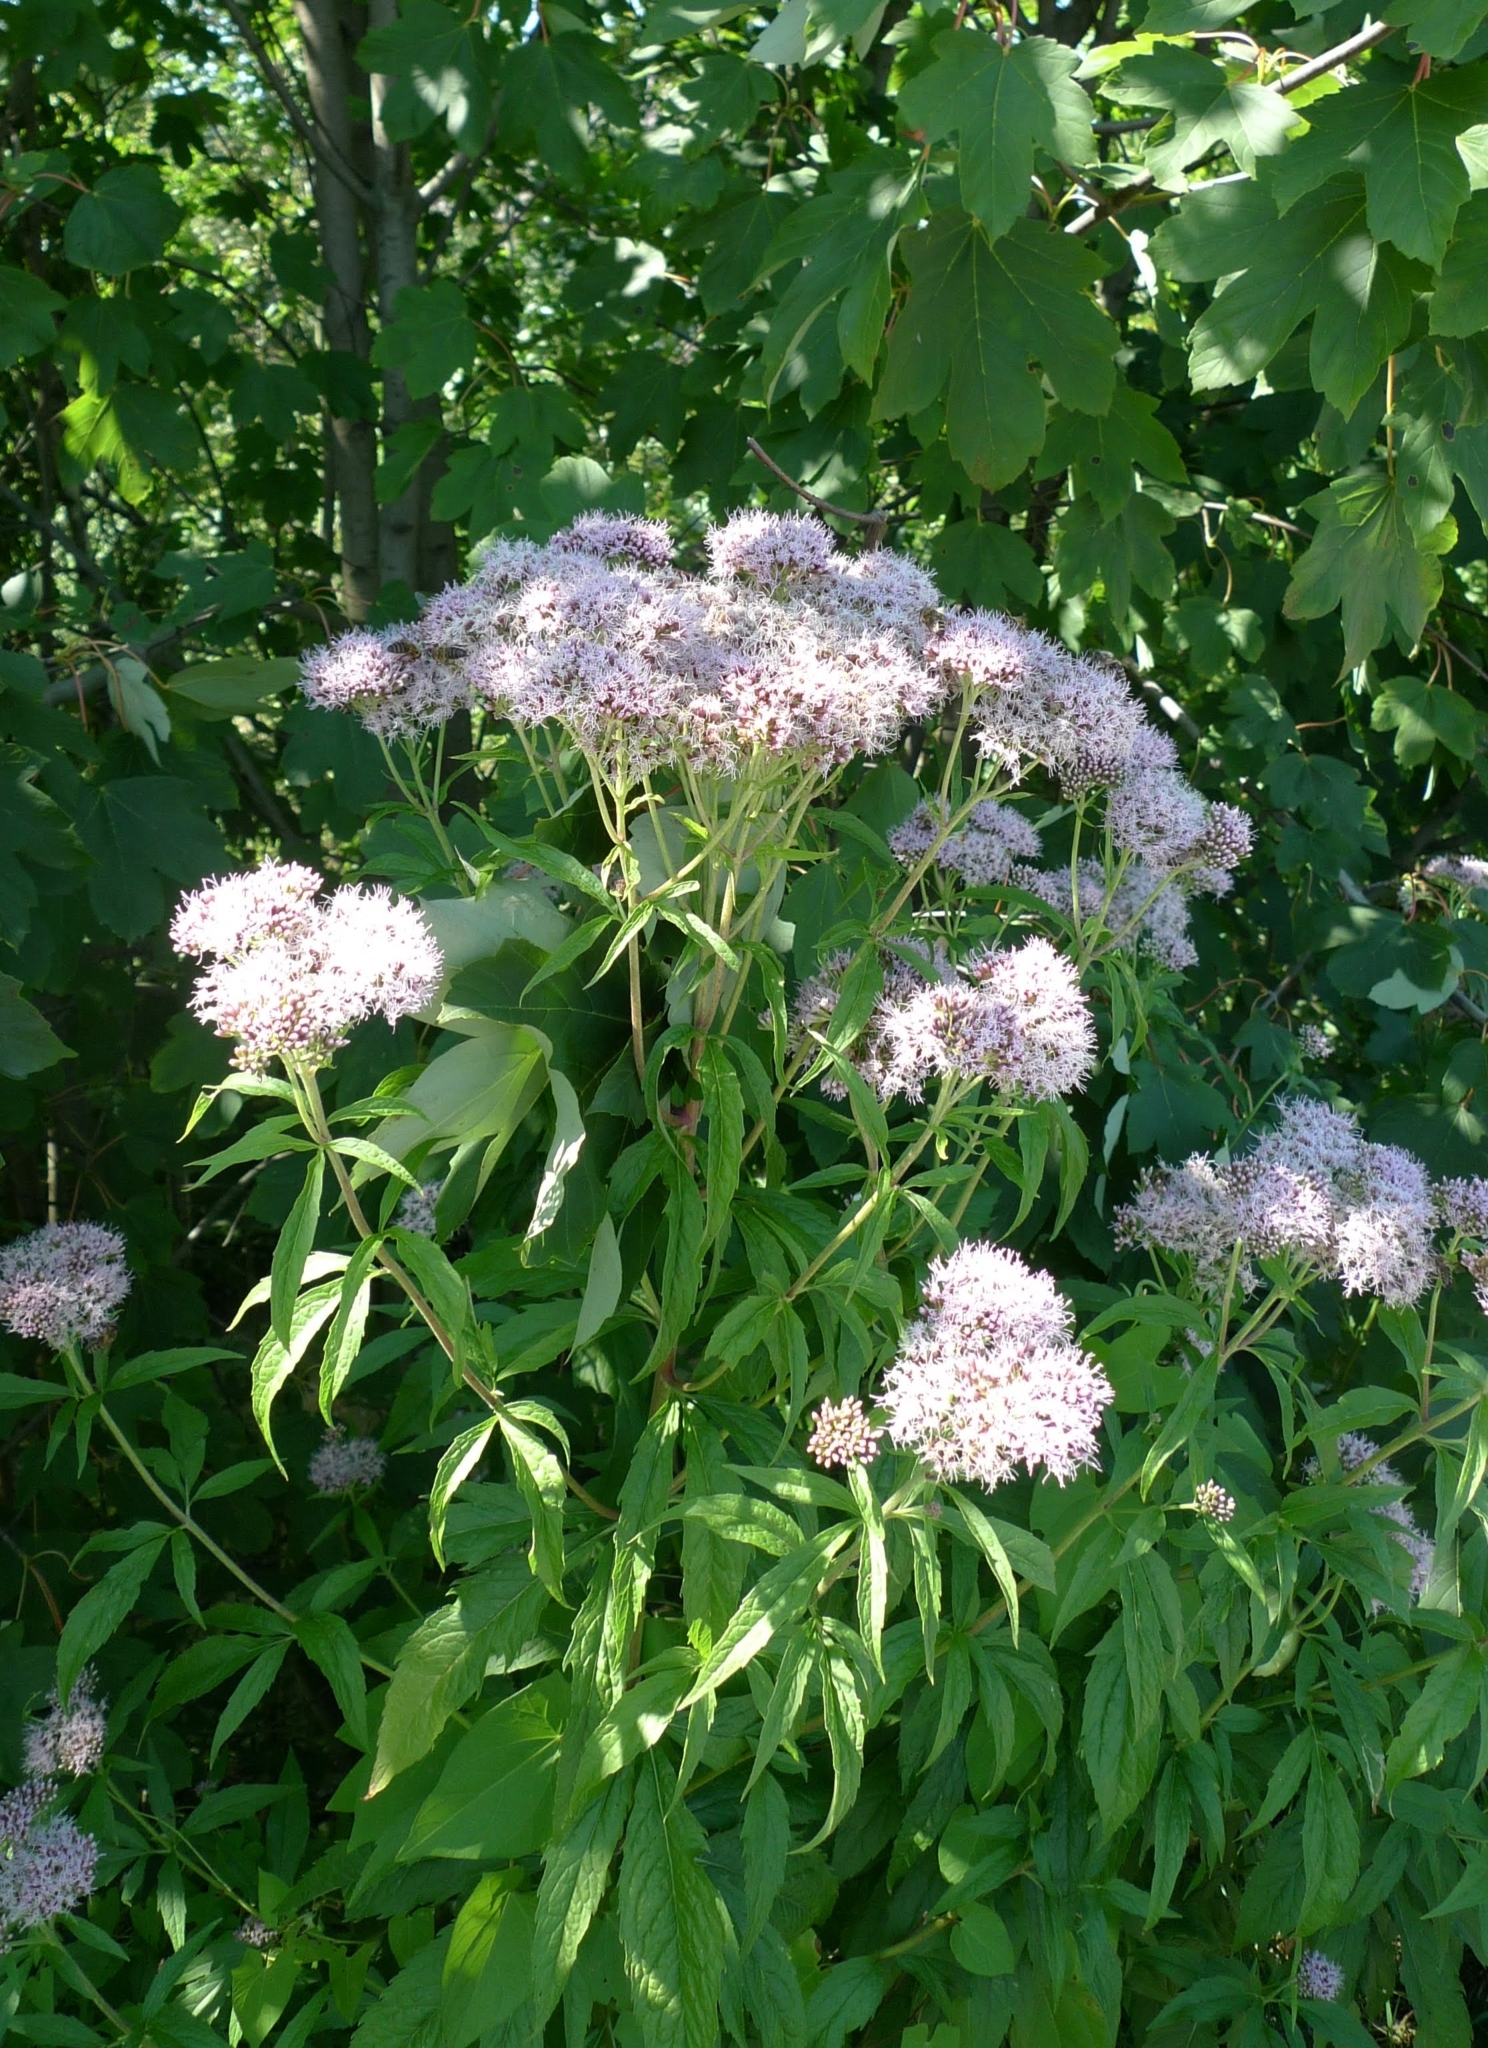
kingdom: Plantae
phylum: Tracheophyta
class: Magnoliopsida
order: Asterales
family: Asteraceae
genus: Eupatorium
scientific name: Eupatorium cannabinum
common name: Hemp-agrimony
